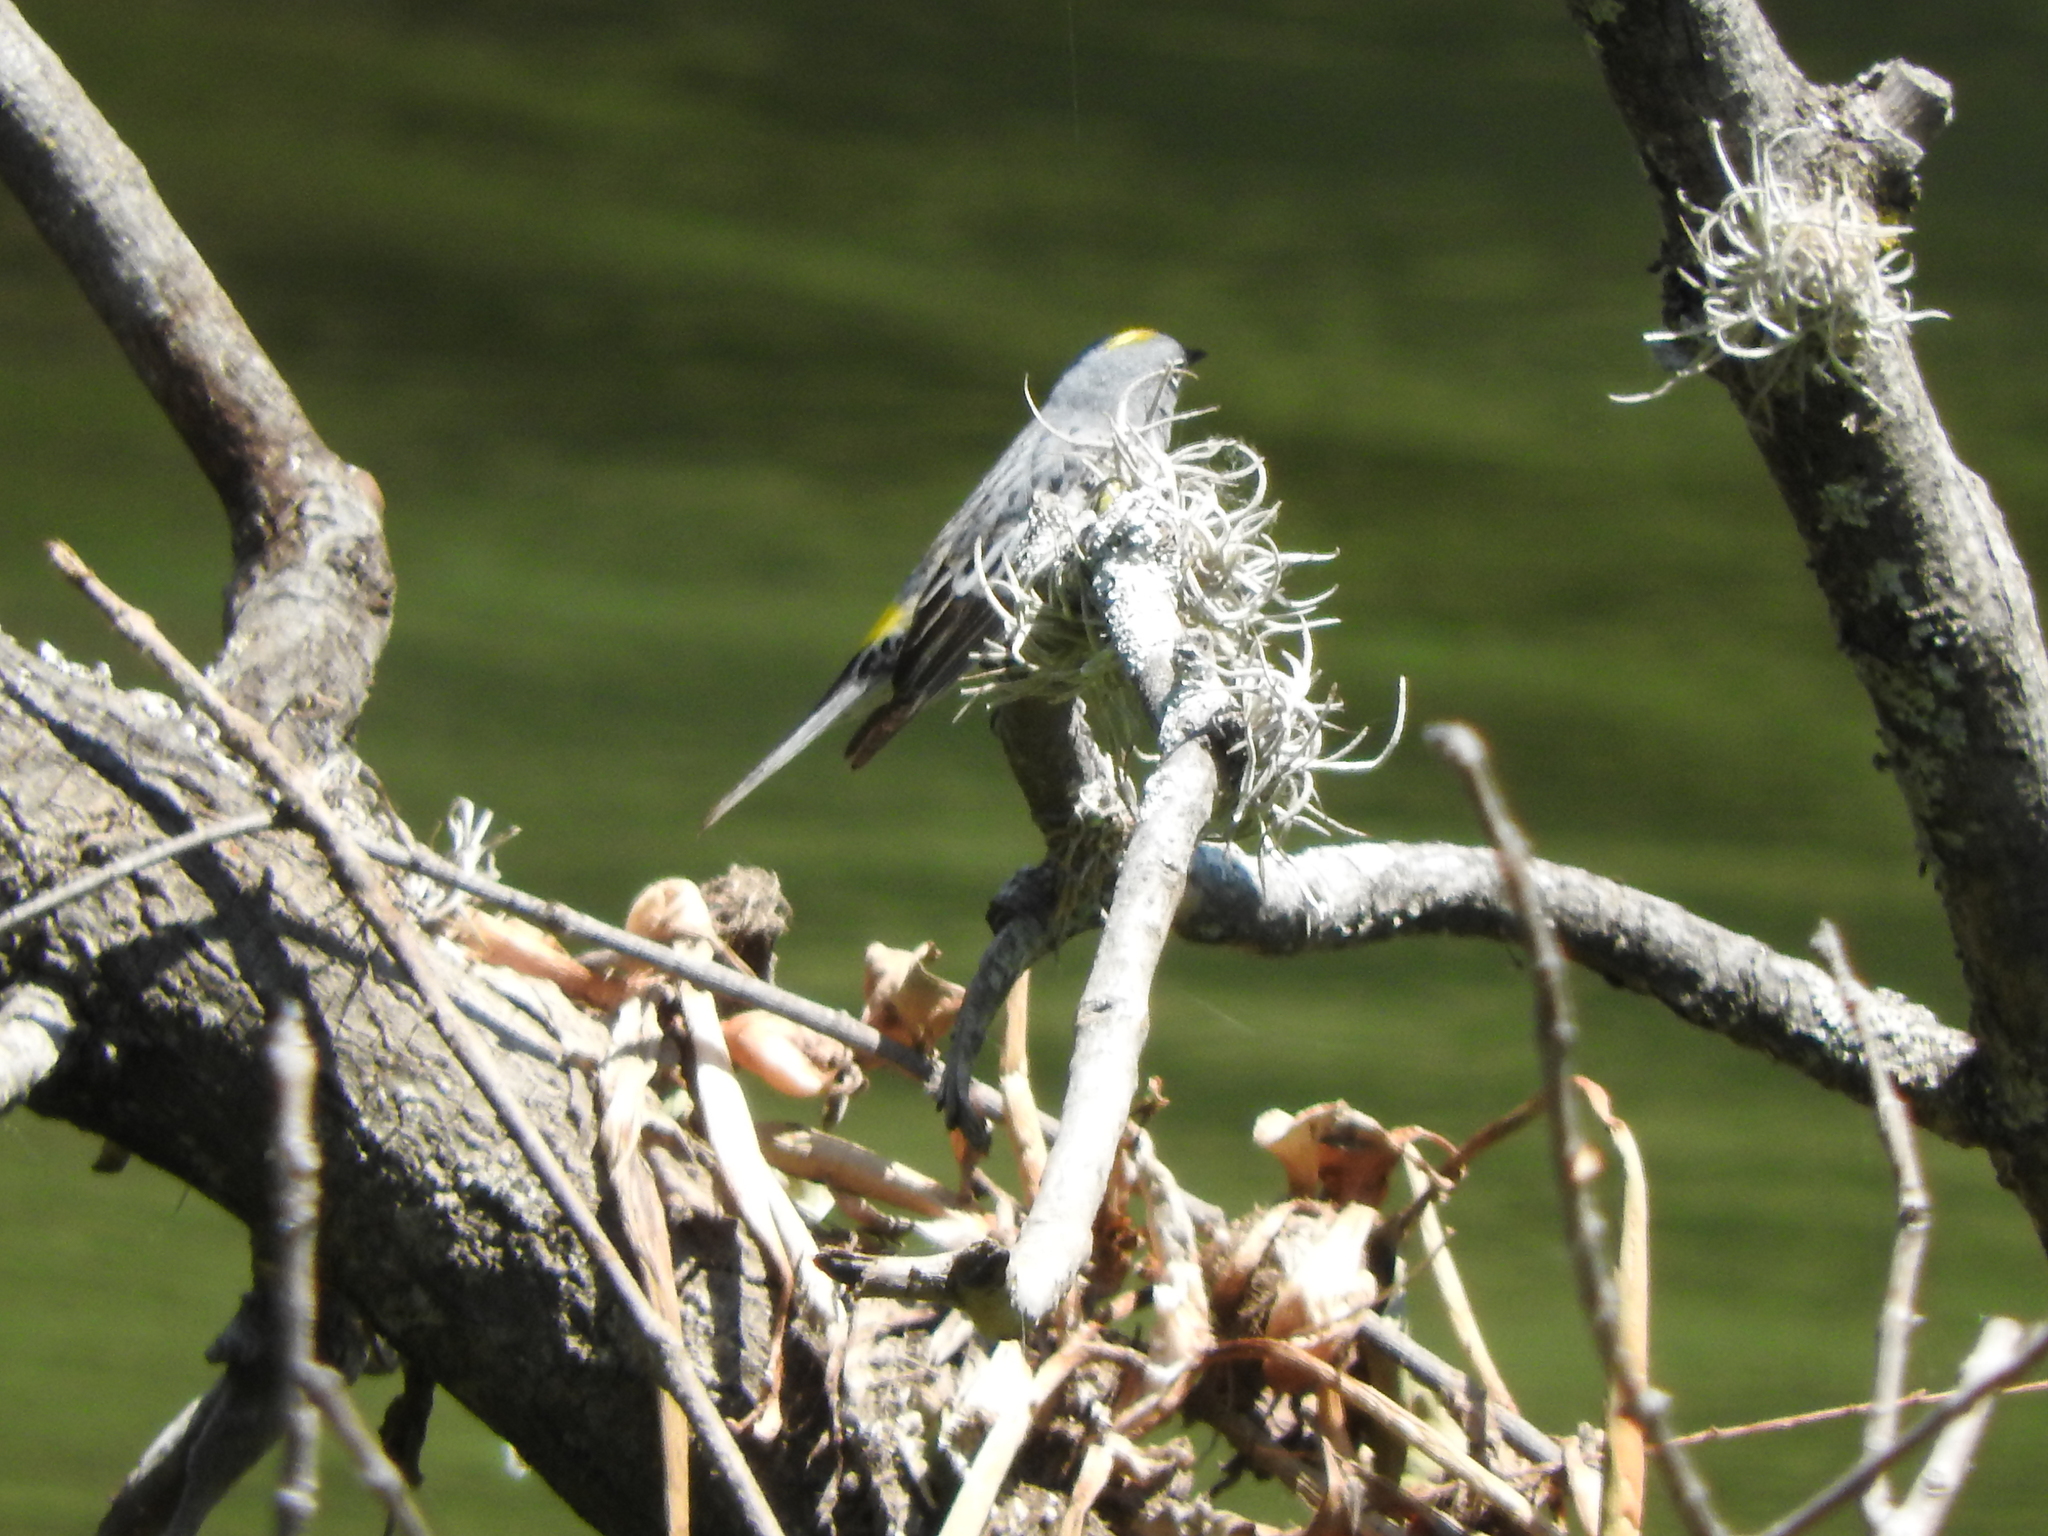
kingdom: Animalia
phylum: Chordata
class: Aves
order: Passeriformes
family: Parulidae
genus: Setophaga
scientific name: Setophaga coronata
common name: Myrtle warbler
